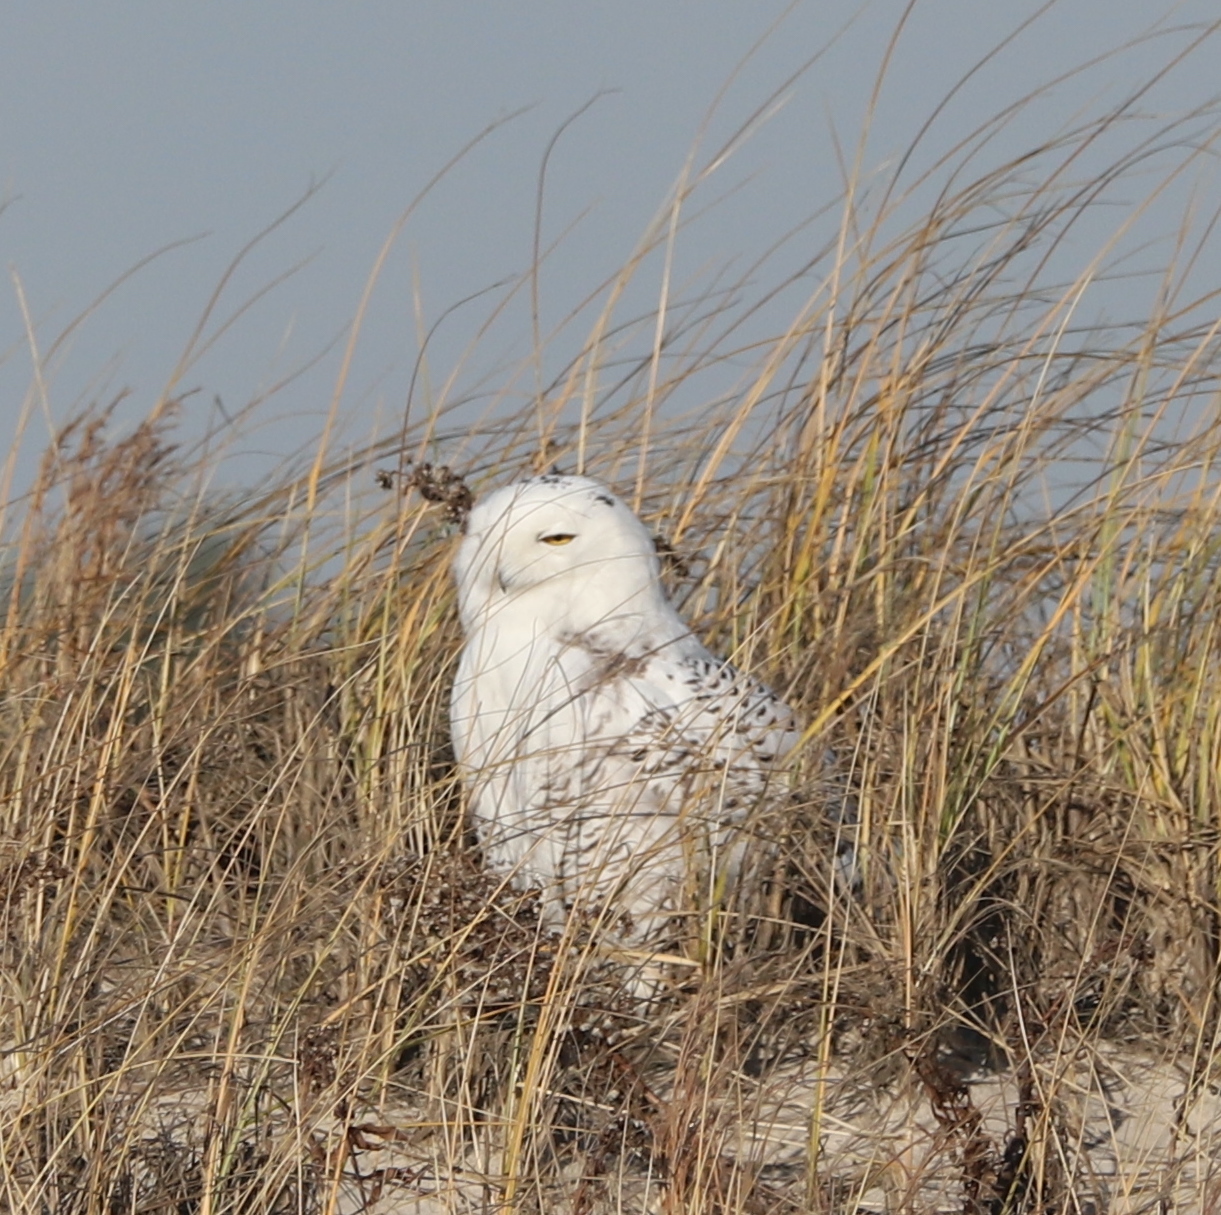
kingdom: Animalia
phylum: Chordata
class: Aves
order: Strigiformes
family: Strigidae
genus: Bubo
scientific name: Bubo scandiacus
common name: Snowy owl
